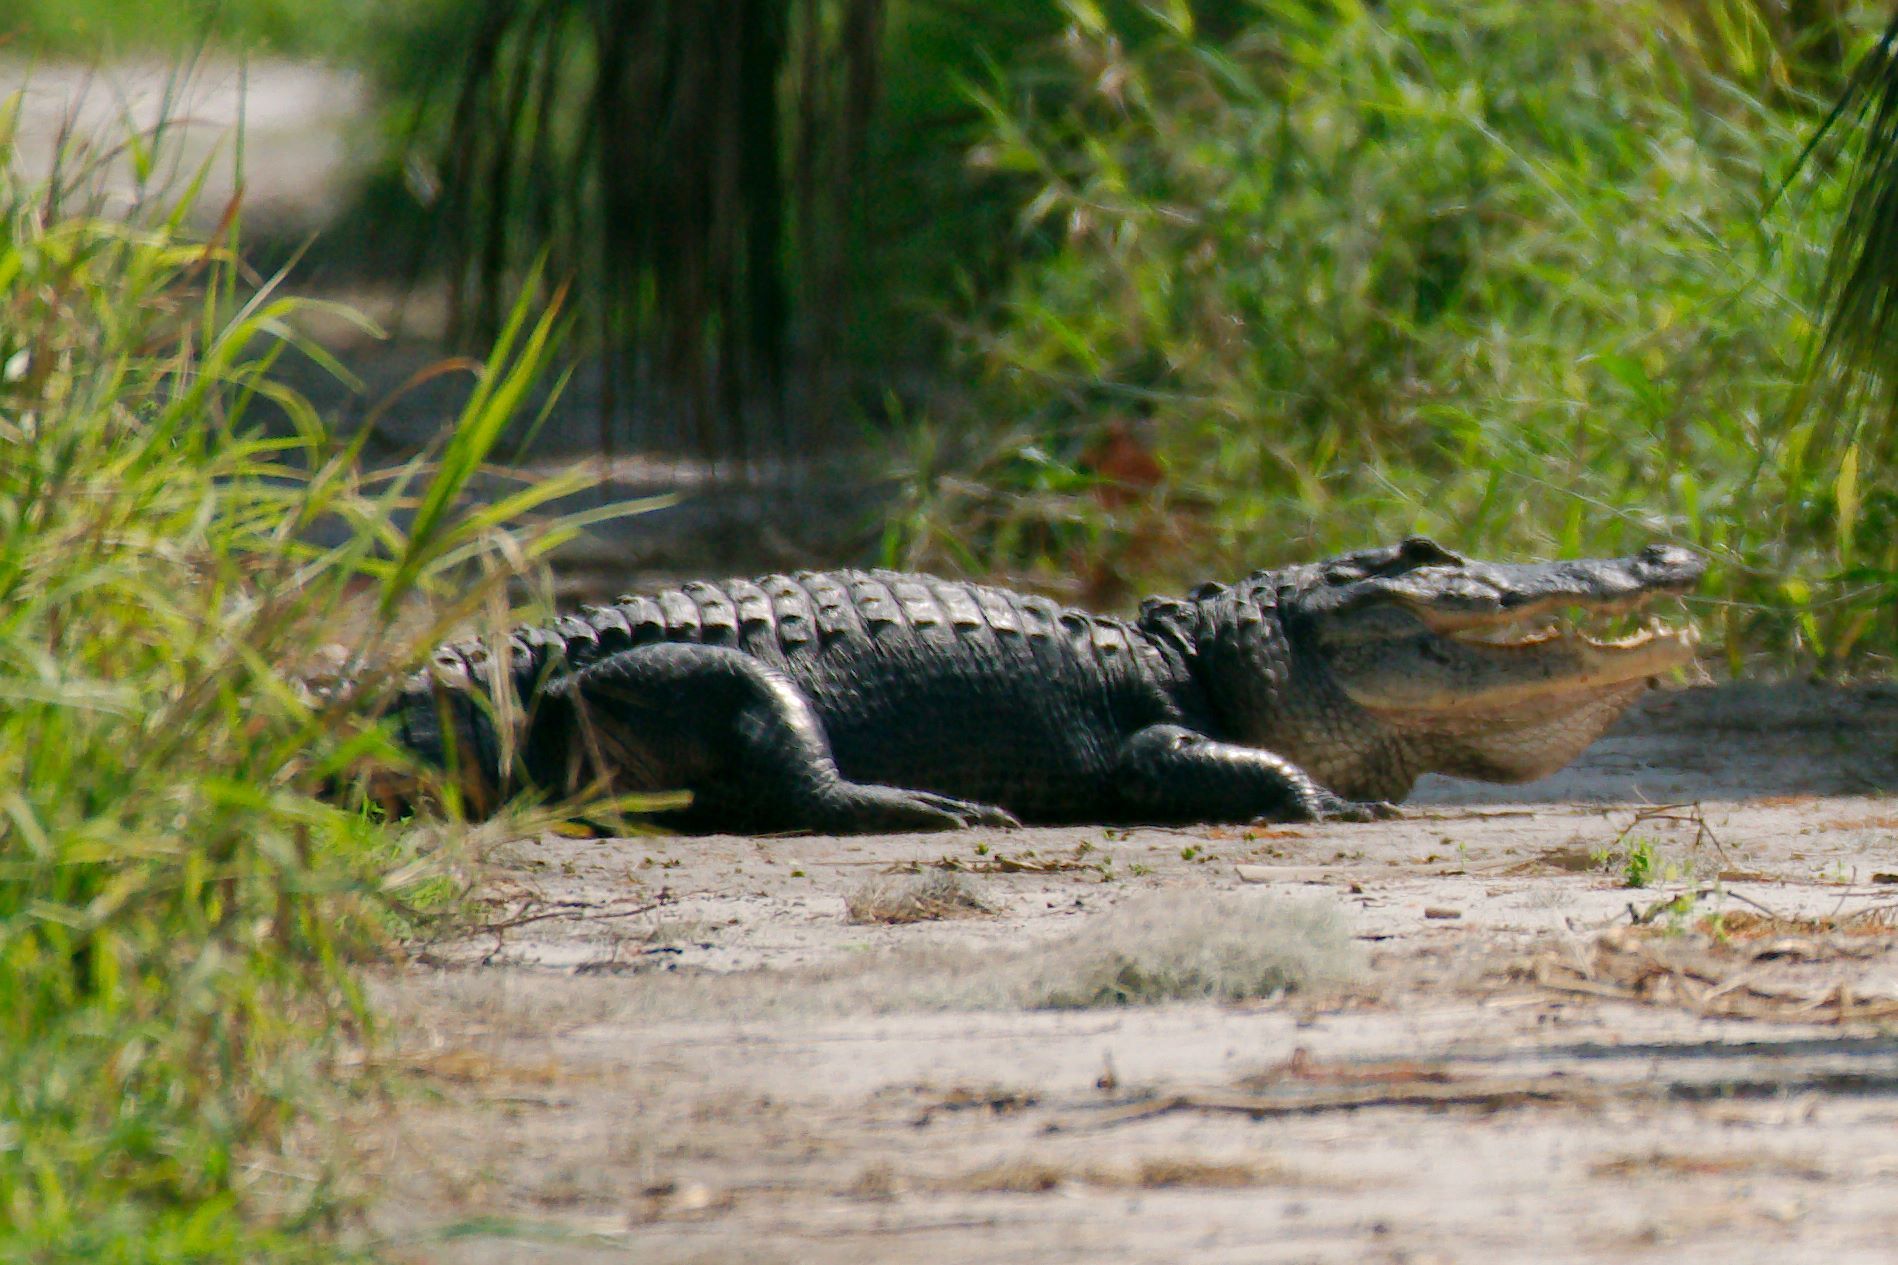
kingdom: Animalia
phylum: Chordata
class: Crocodylia
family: Alligatoridae
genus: Alligator
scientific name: Alligator mississippiensis
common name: American alligator
